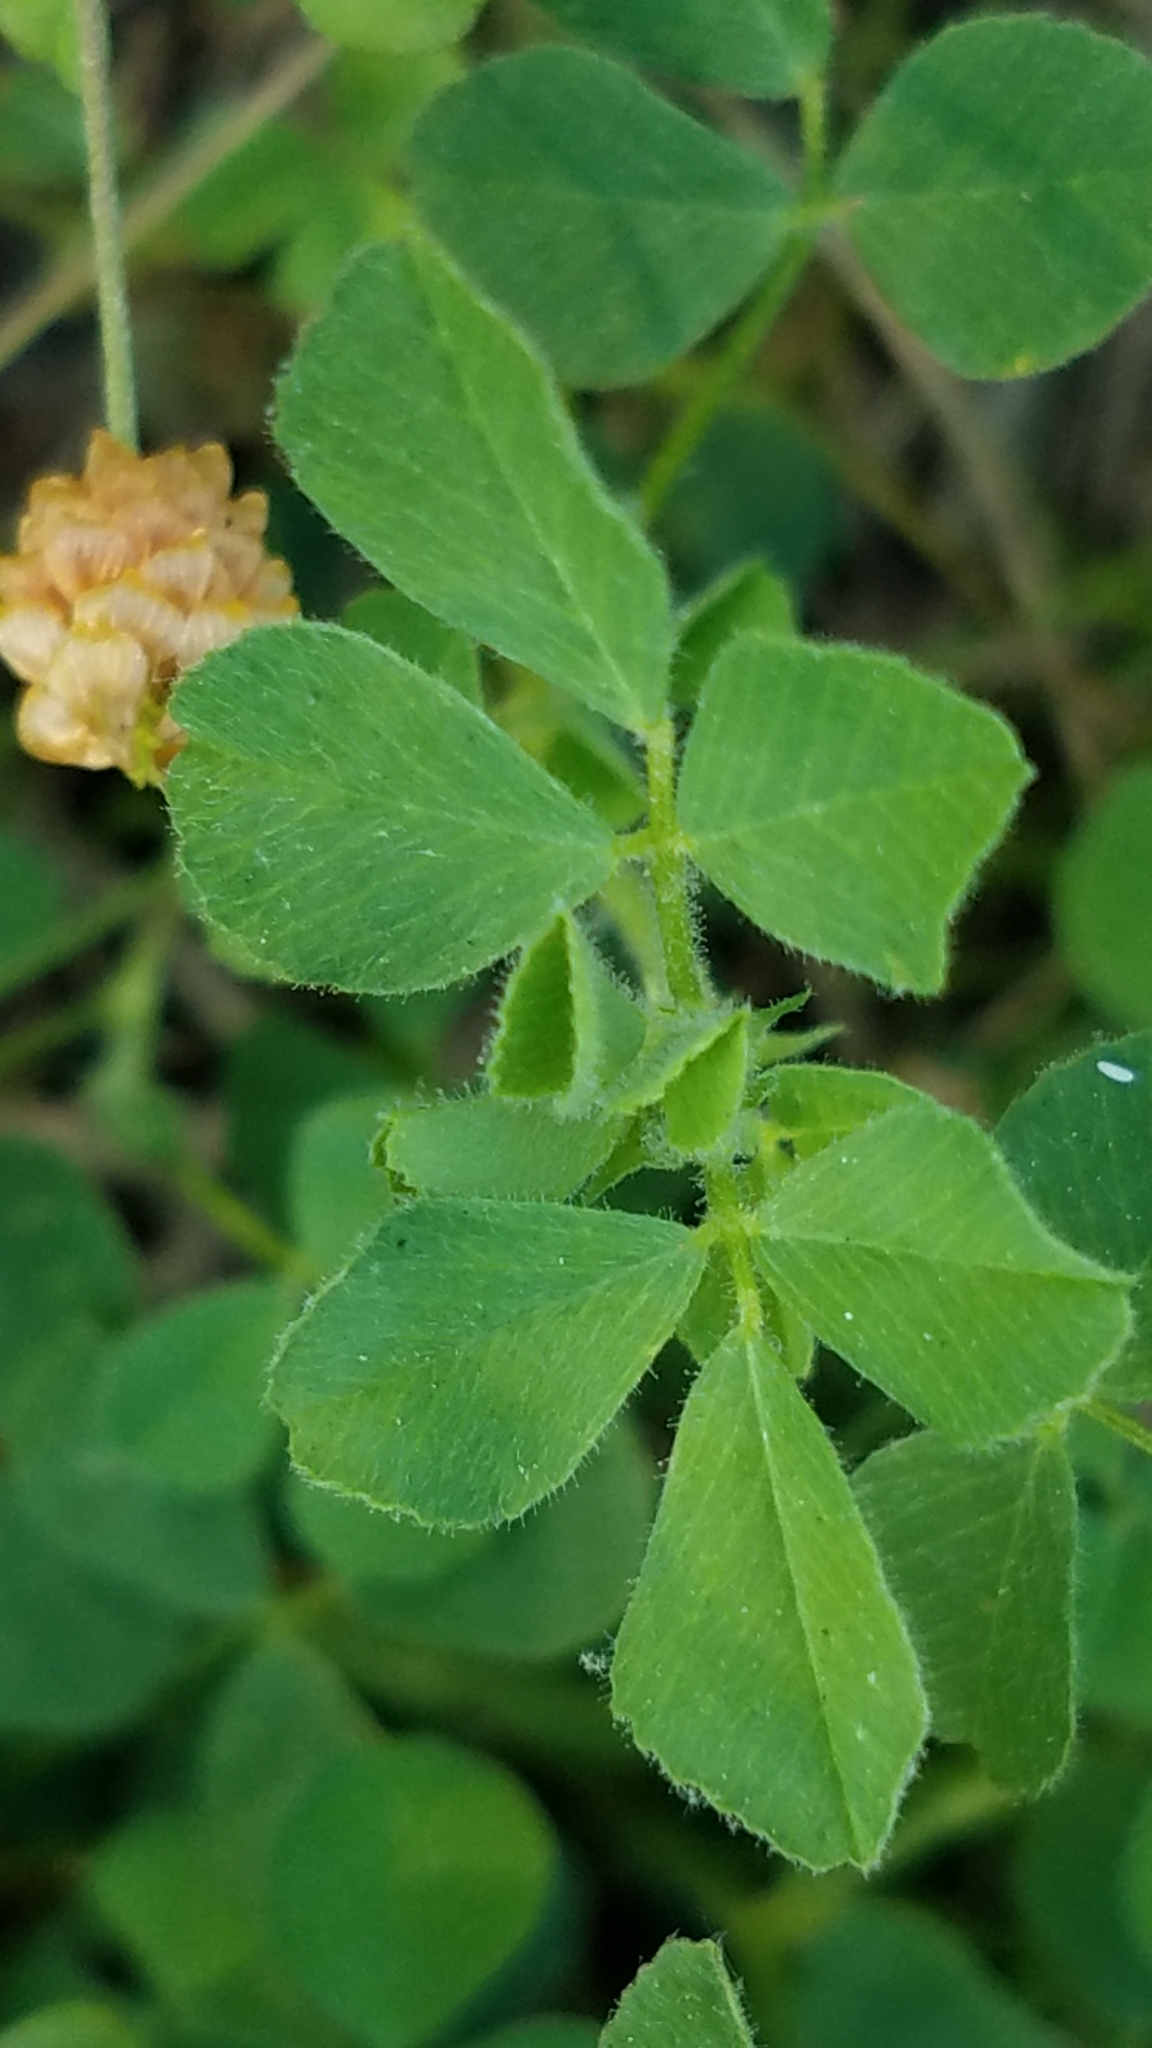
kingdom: Plantae
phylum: Tracheophyta
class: Magnoliopsida
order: Fabales
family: Fabaceae
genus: Trifolium
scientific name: Trifolium campestre
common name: Field clover
